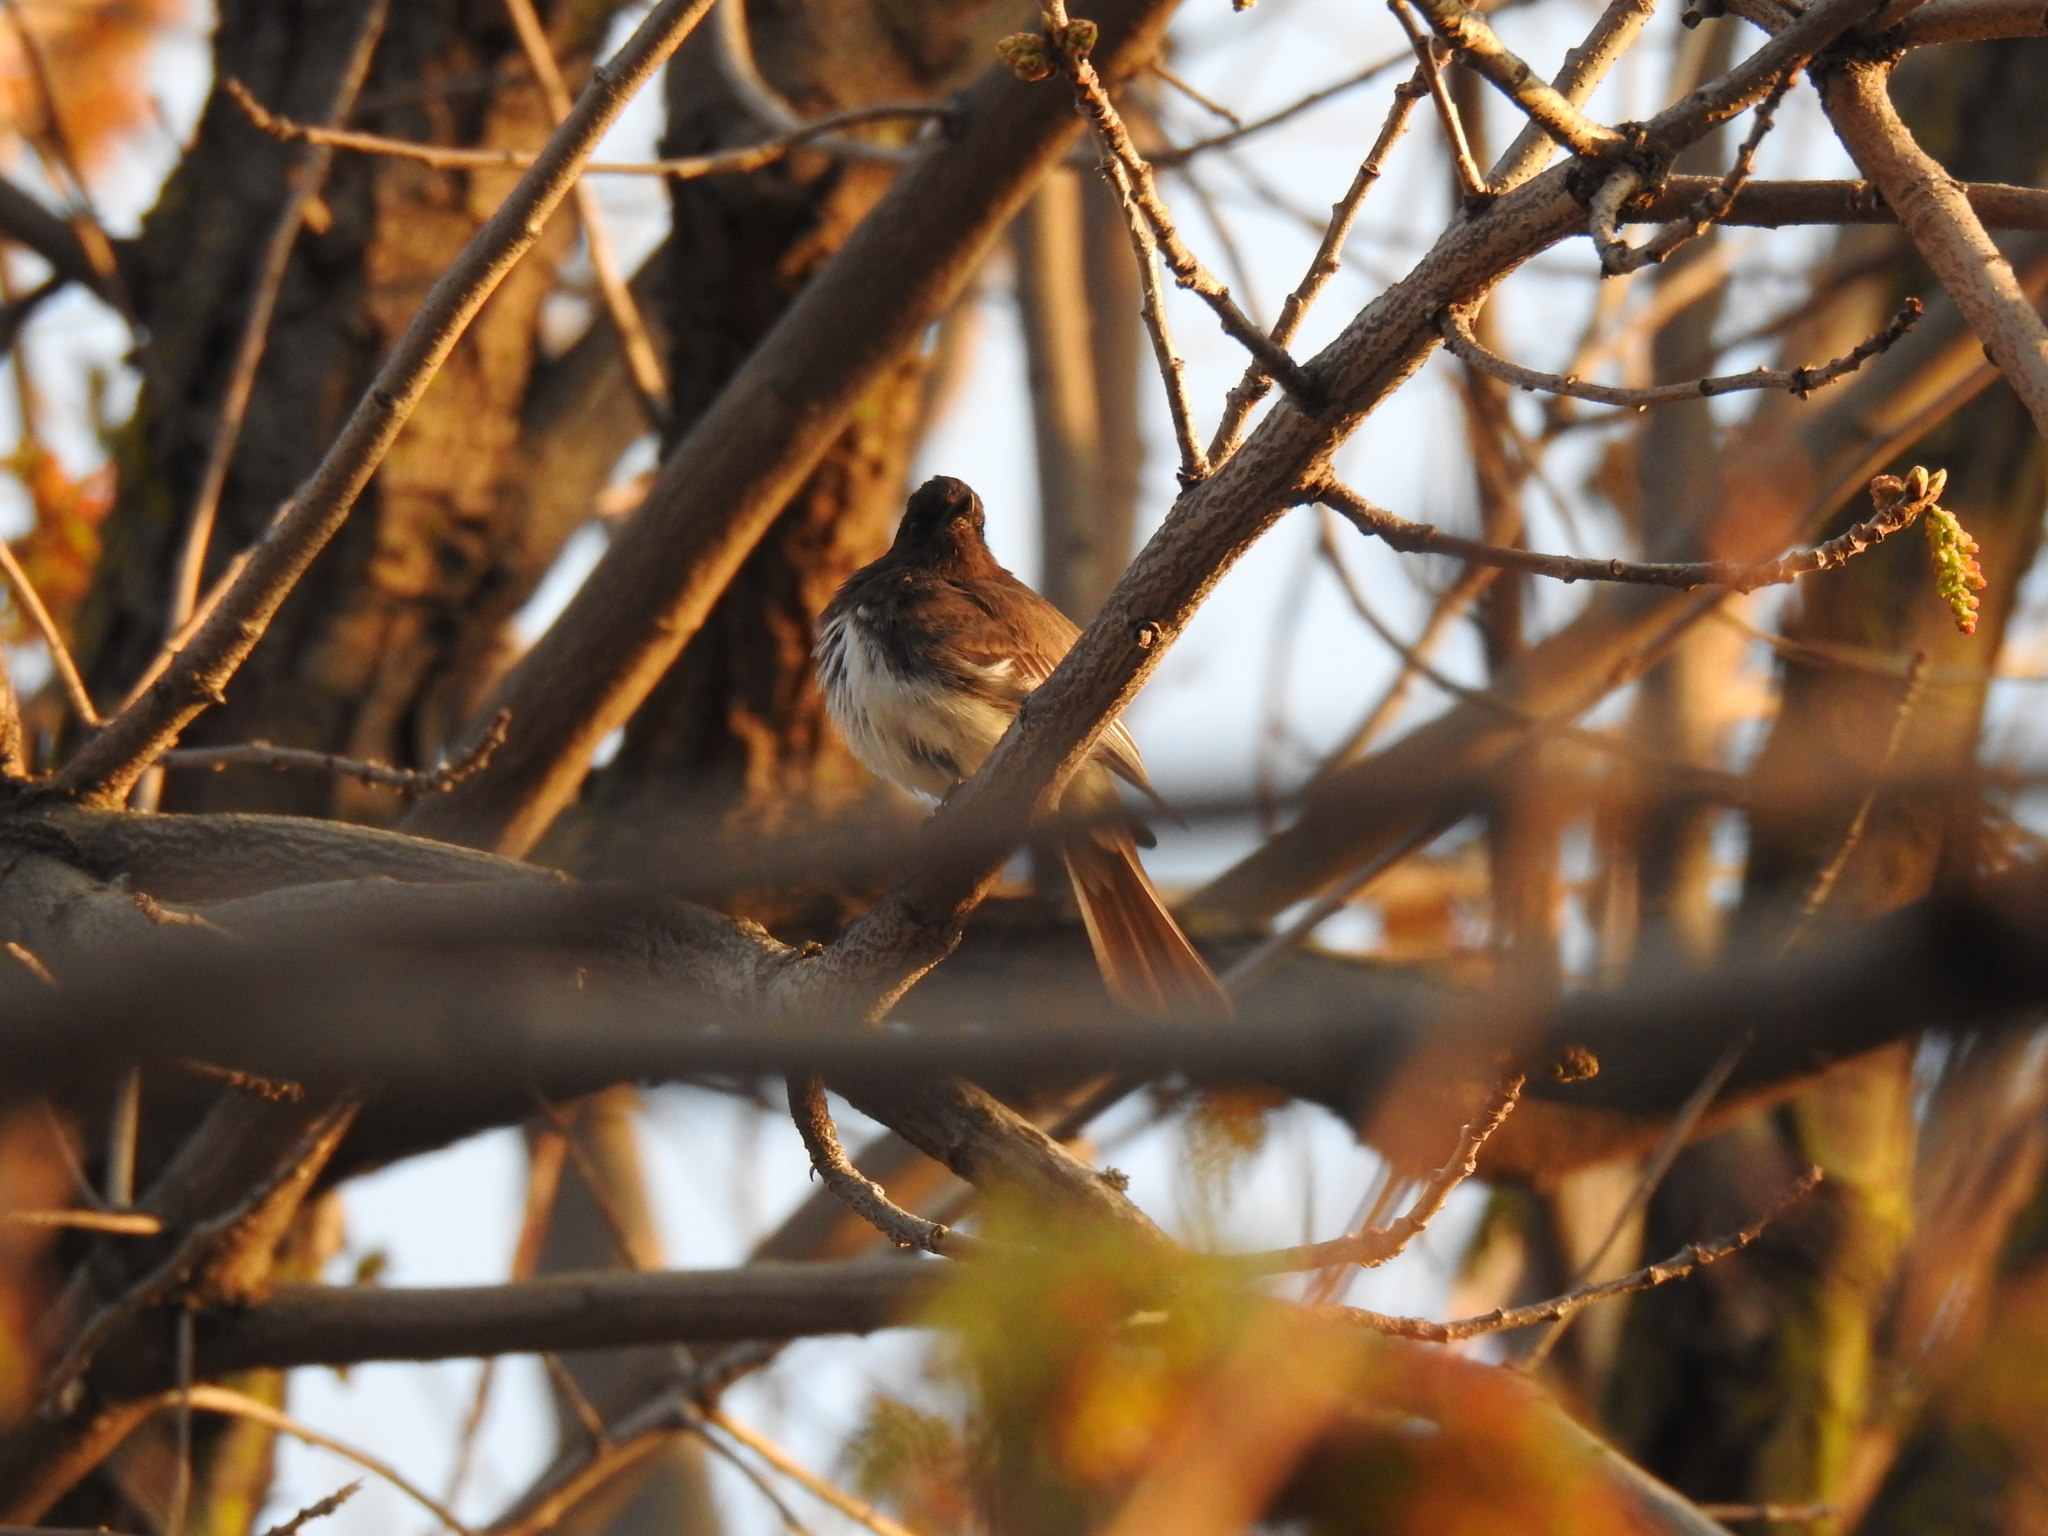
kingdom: Animalia
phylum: Chordata
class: Aves
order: Passeriformes
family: Tyrannidae
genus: Sayornis
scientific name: Sayornis nigricans
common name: Black phoebe
